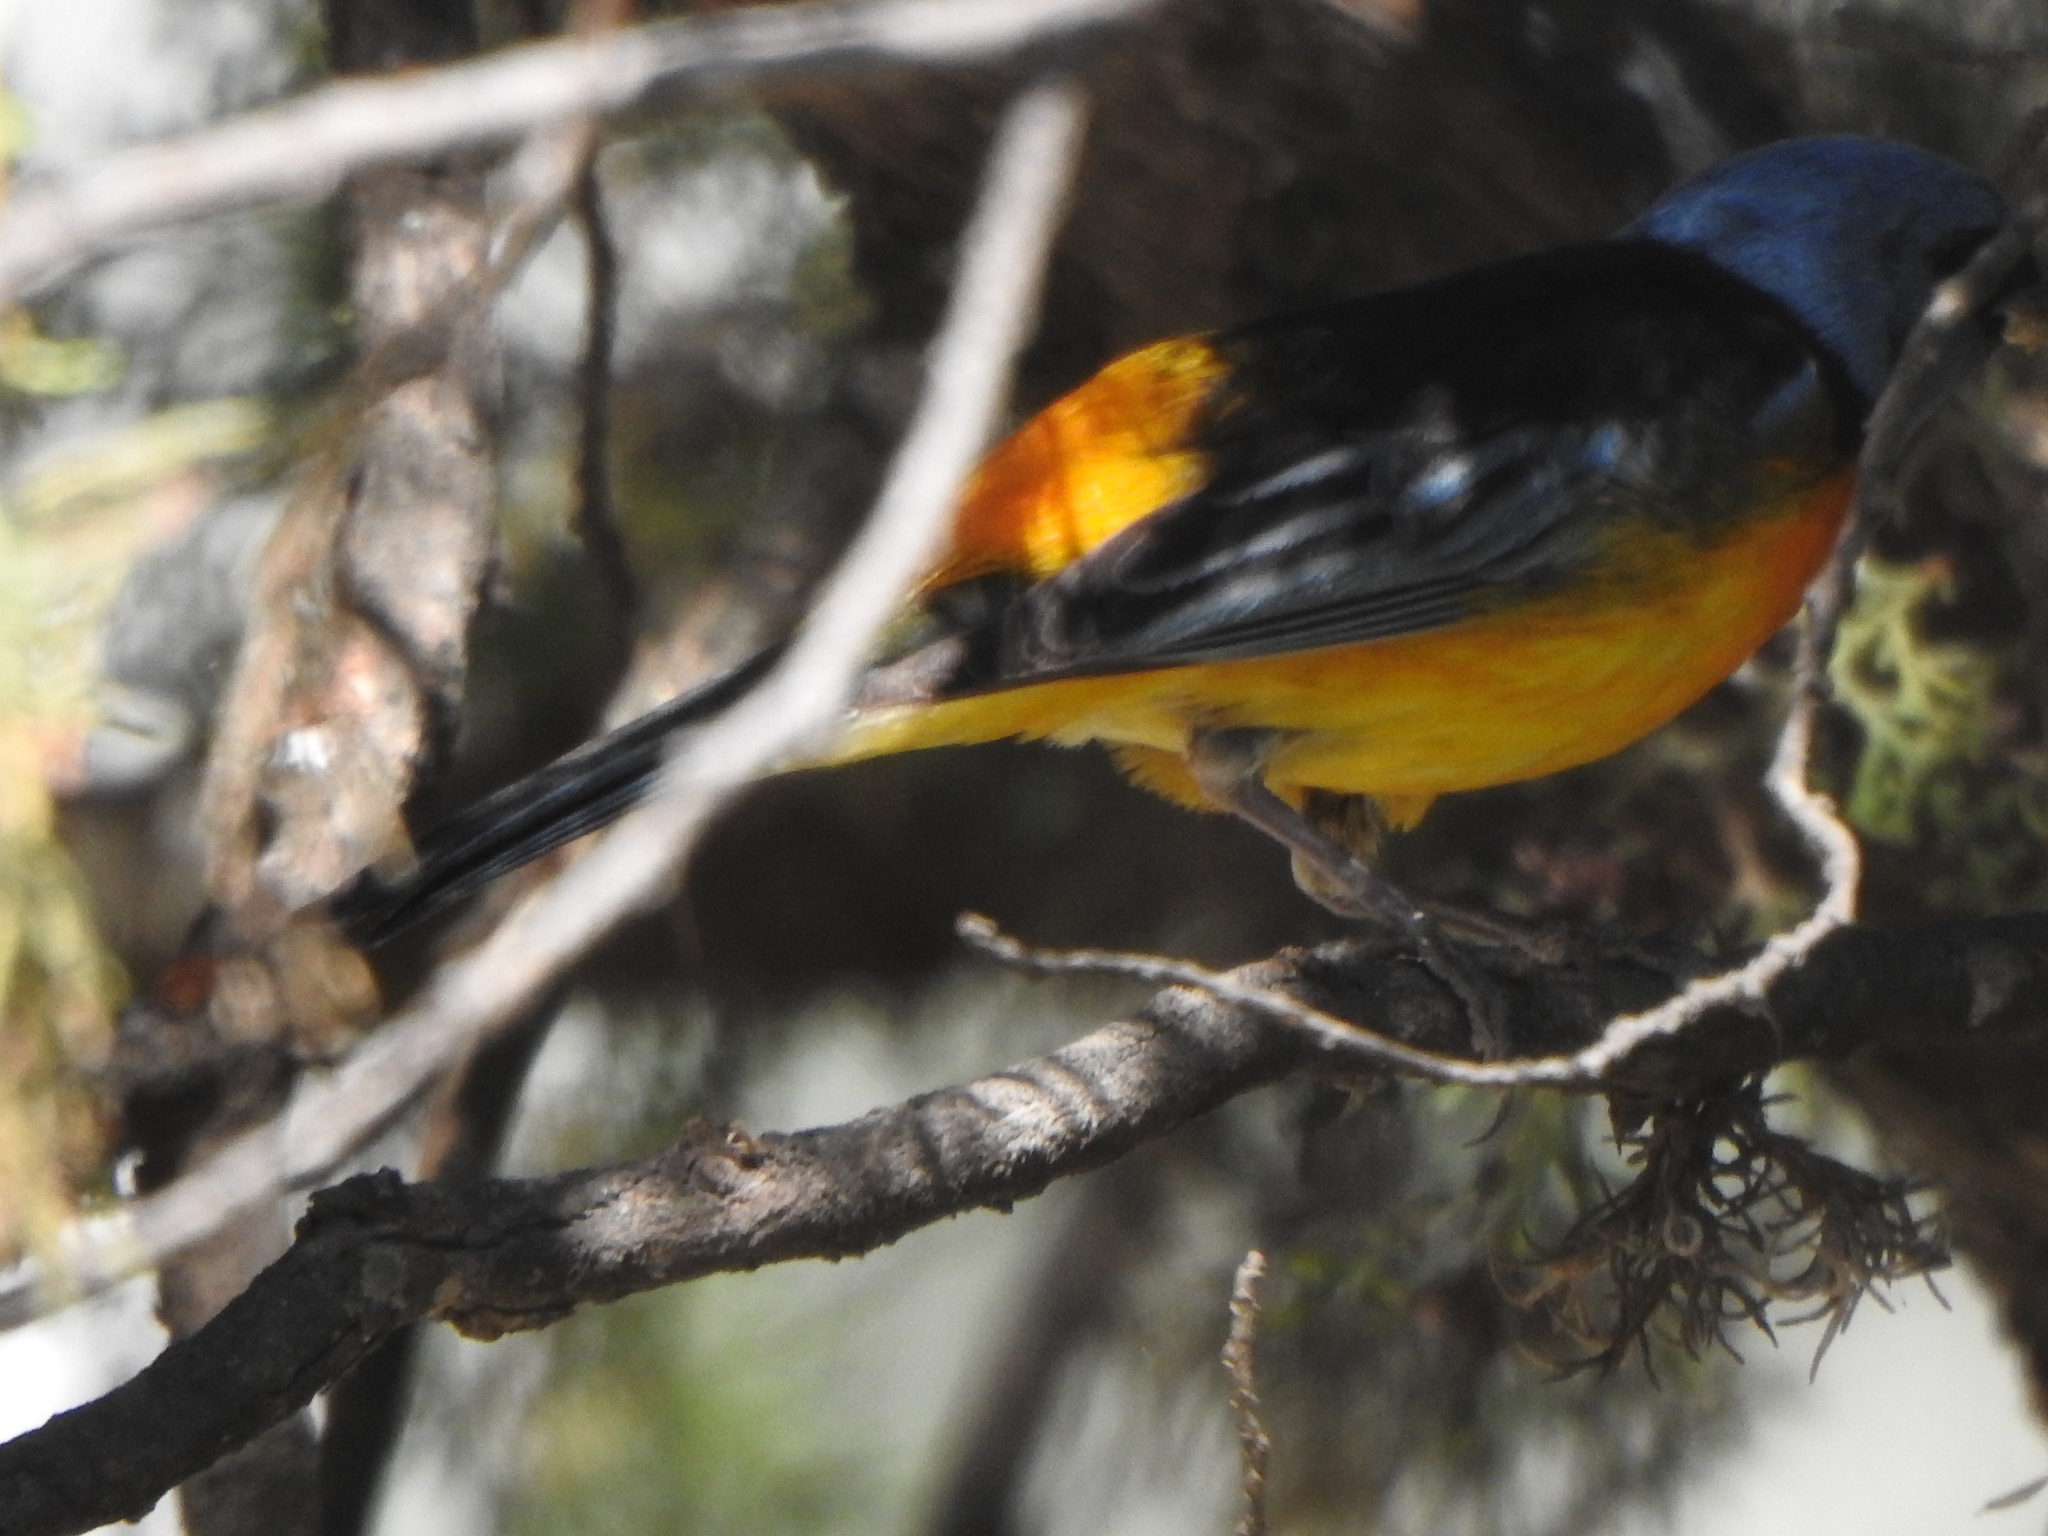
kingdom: Animalia
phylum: Chordata
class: Aves
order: Passeriformes
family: Thraupidae
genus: Rauenia
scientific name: Rauenia bonariensis
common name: Blue-and-yellow tanager
